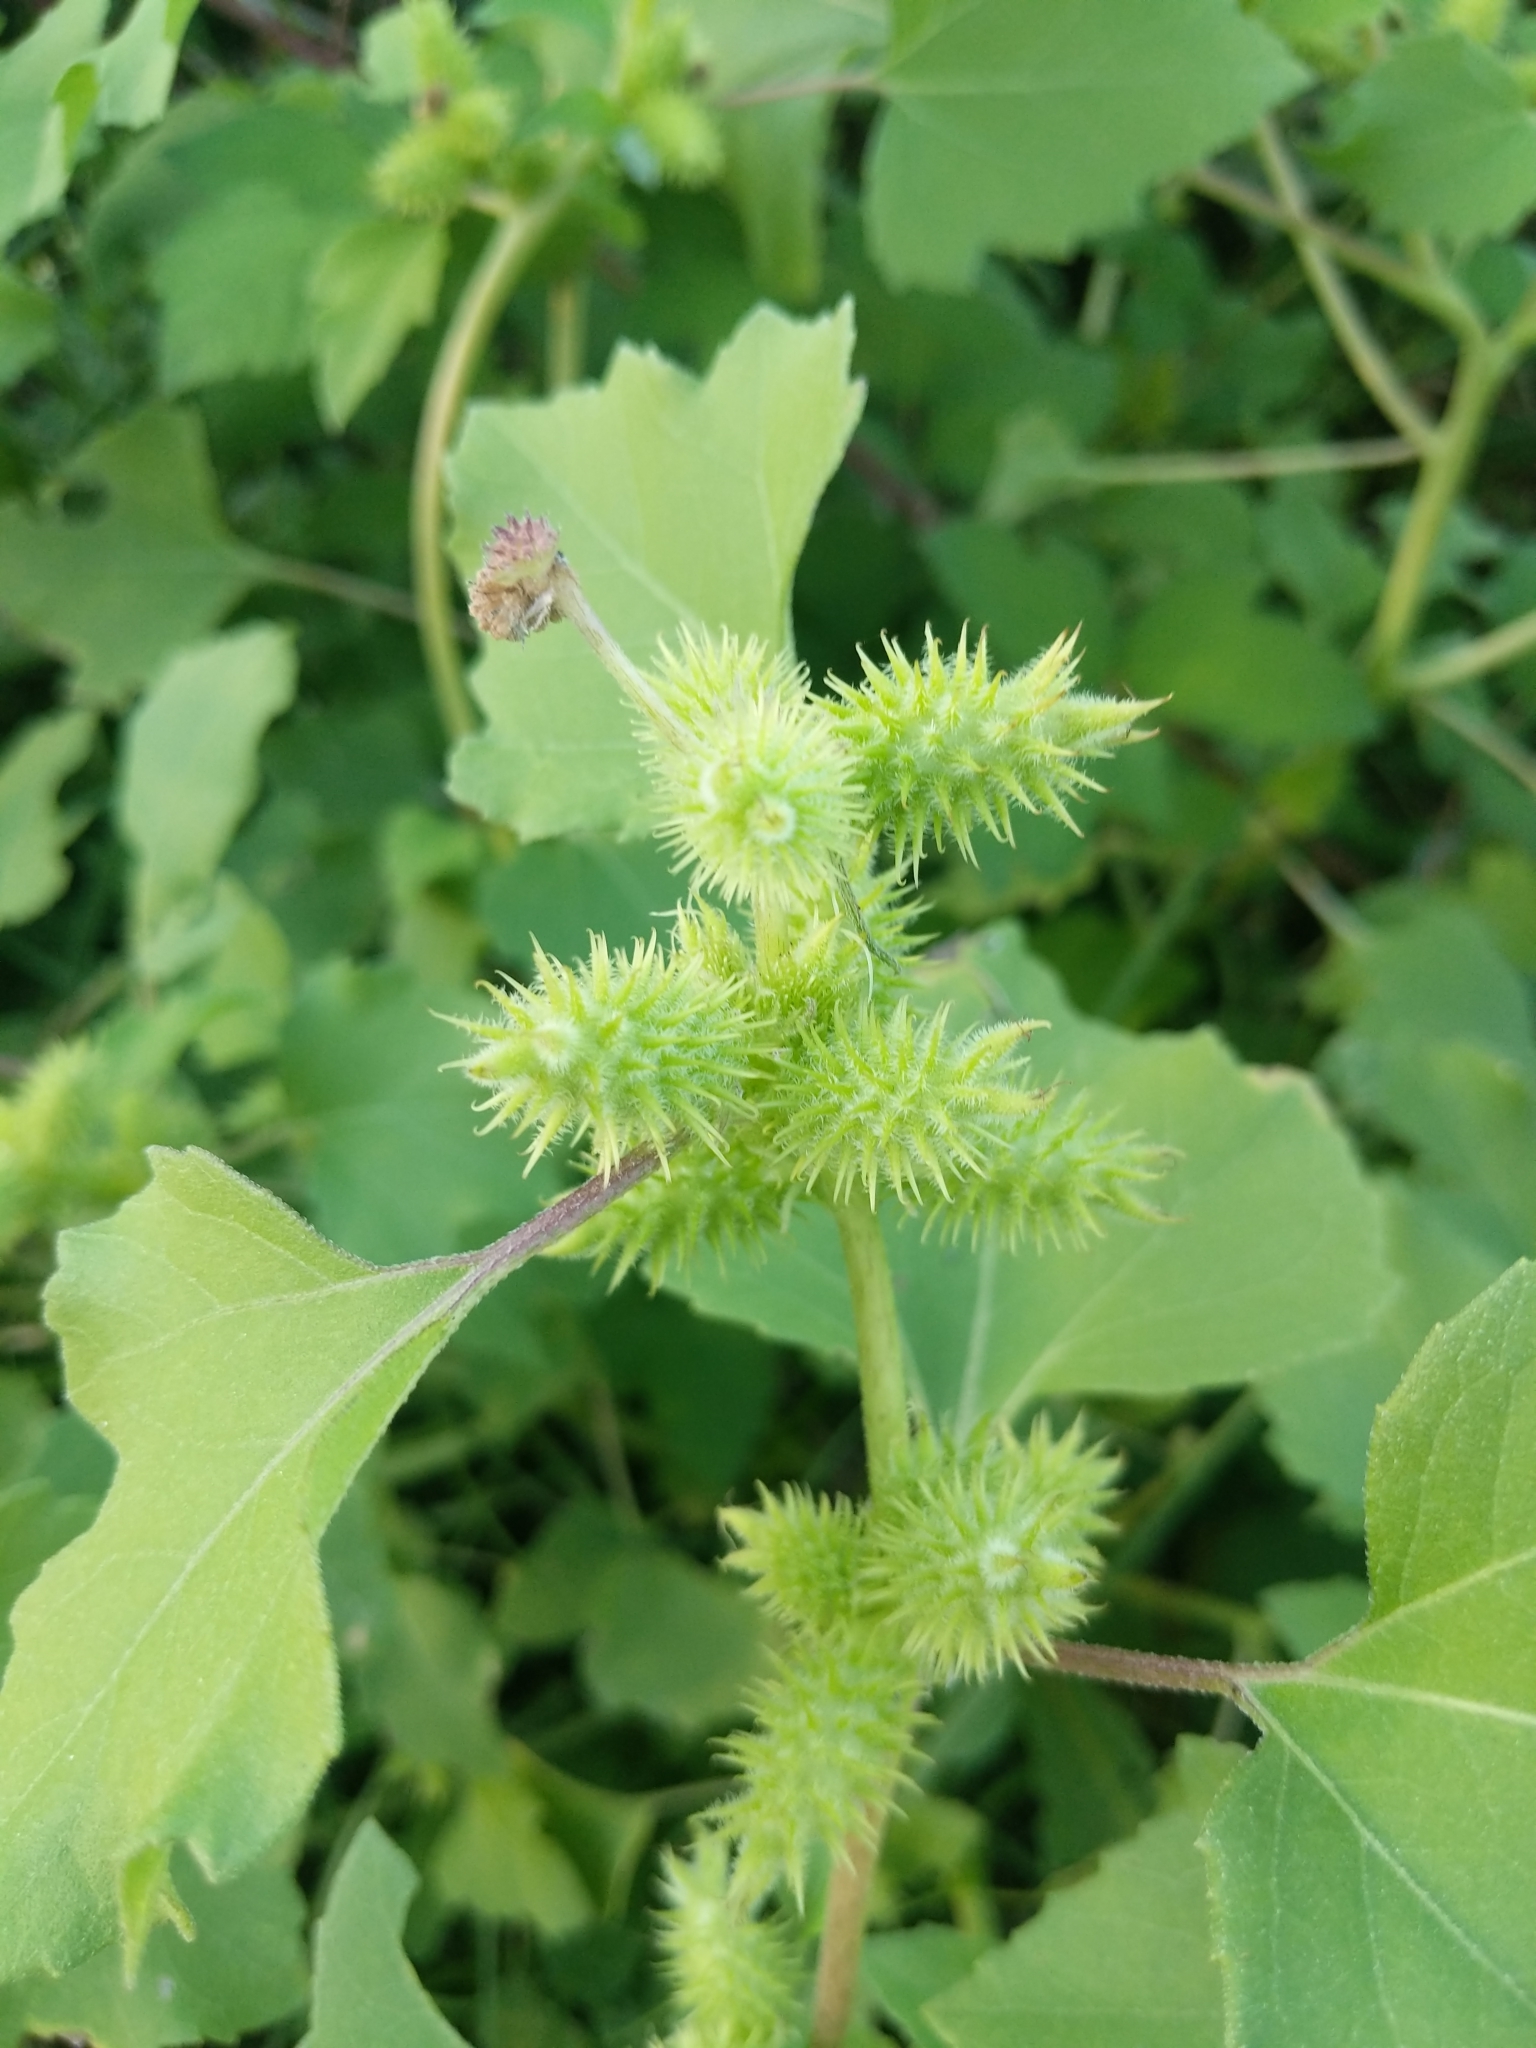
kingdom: Plantae
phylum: Tracheophyta
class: Magnoliopsida
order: Asterales
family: Asteraceae
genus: Xanthium
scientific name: Xanthium orientale
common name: Californian burr
